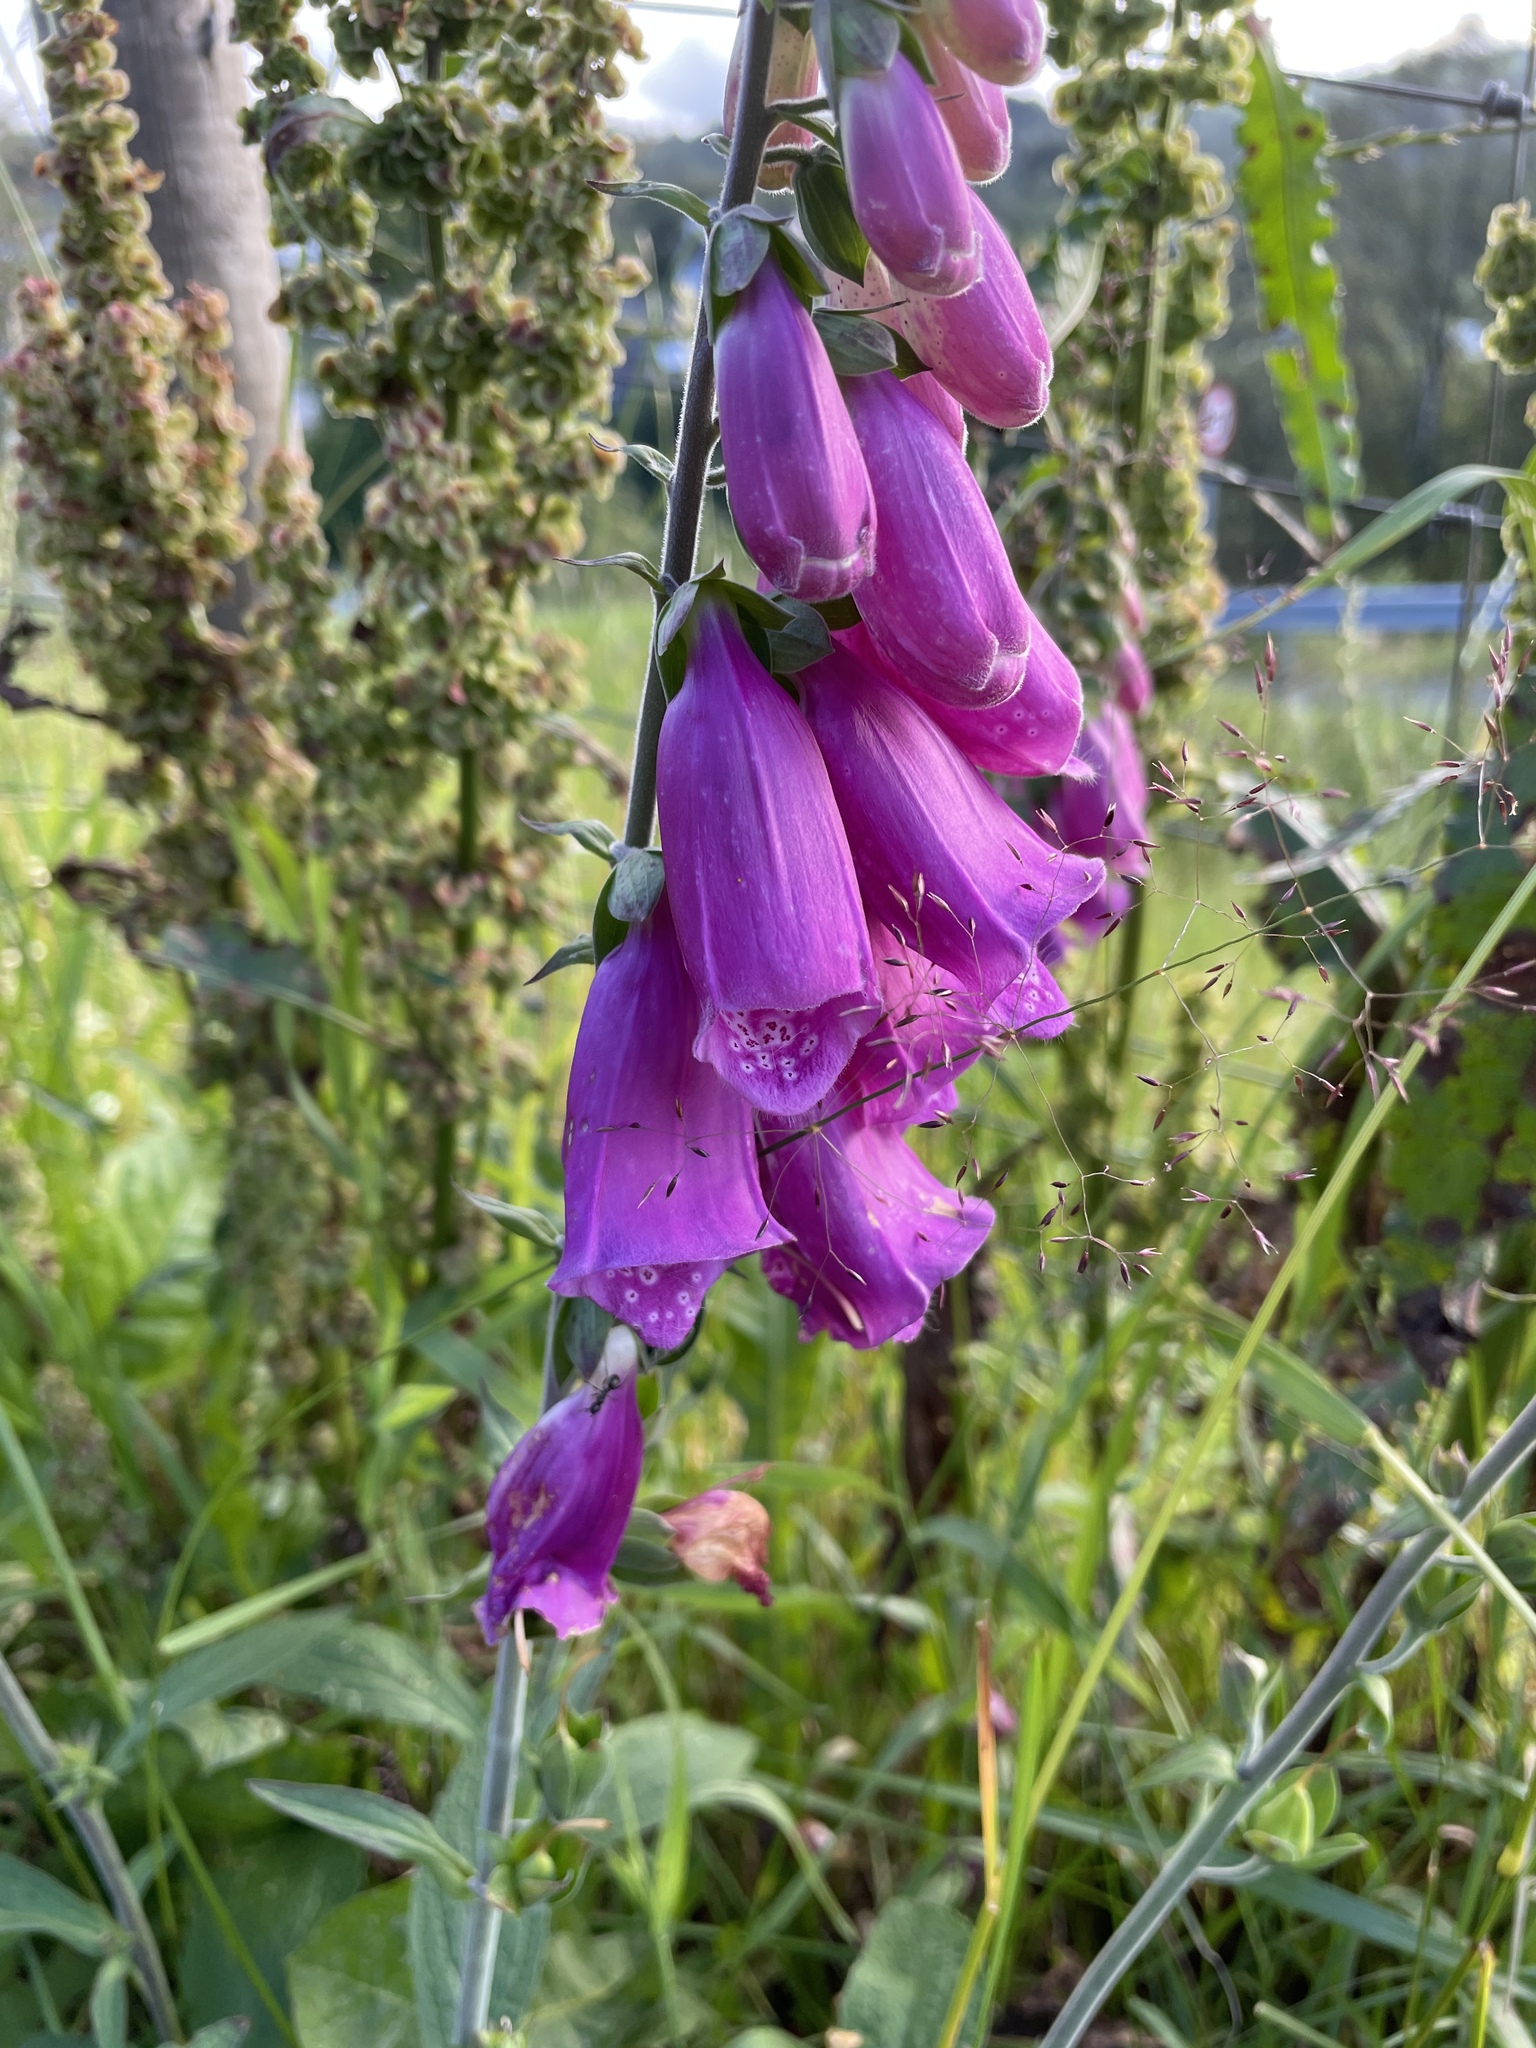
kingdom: Plantae
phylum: Tracheophyta
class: Magnoliopsida
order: Lamiales
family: Plantaginaceae
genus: Digitalis
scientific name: Digitalis purpurea
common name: Foxglove
